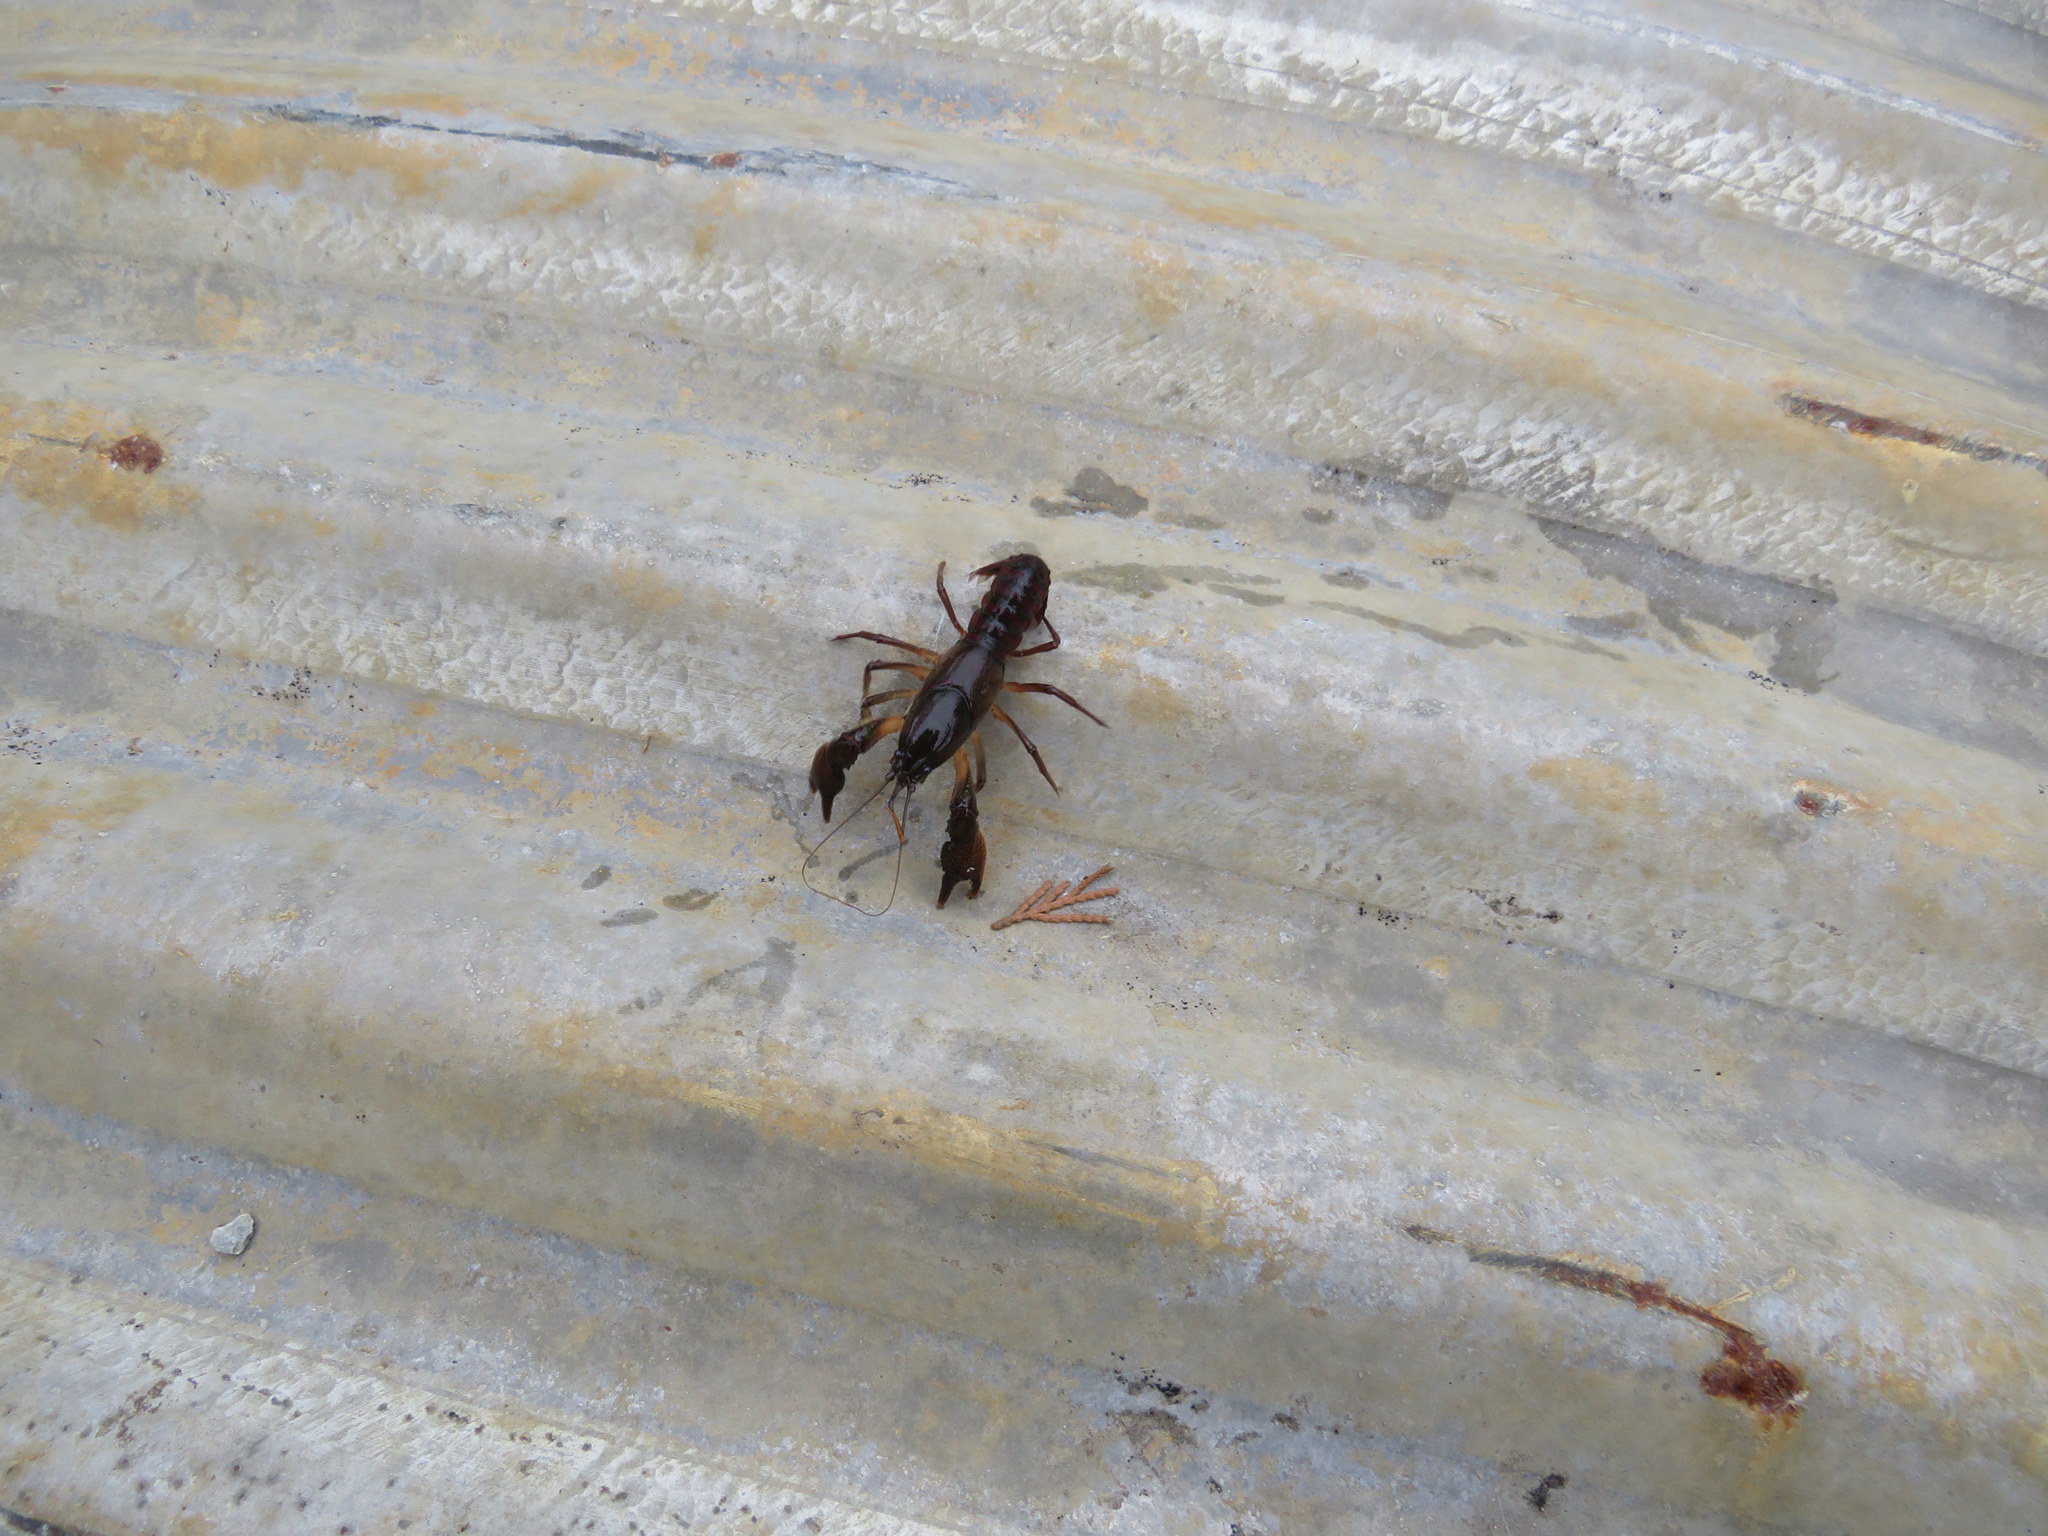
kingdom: Animalia
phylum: Arthropoda
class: Malacostraca
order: Decapoda
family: Cambaridae
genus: Procambarus
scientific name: Procambarus pygmaeus
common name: Christmas tree crayfish
